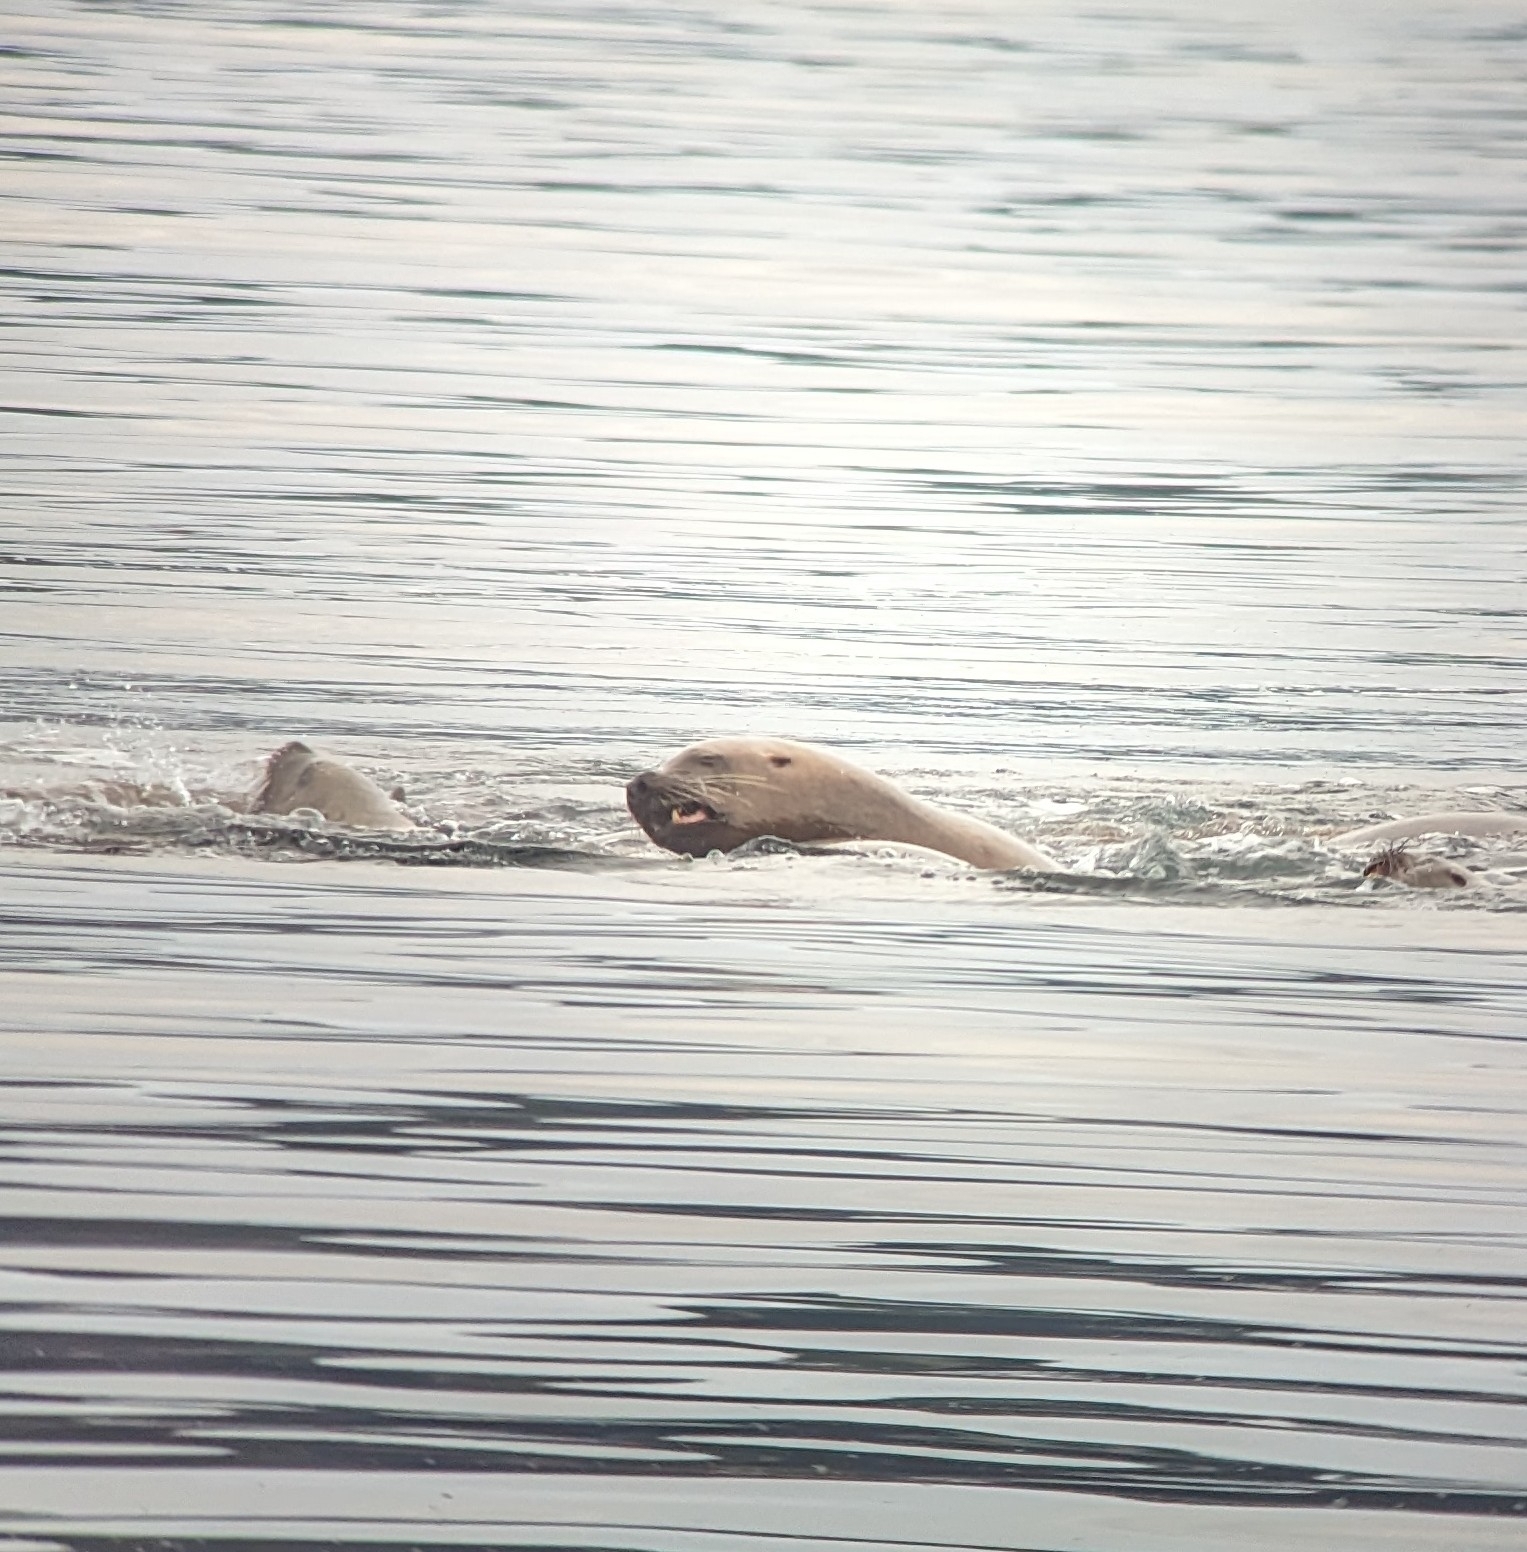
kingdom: Animalia
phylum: Chordata
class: Mammalia
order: Carnivora
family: Otariidae
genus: Eumetopias
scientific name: Eumetopias jubatus
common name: Steller sea lion
